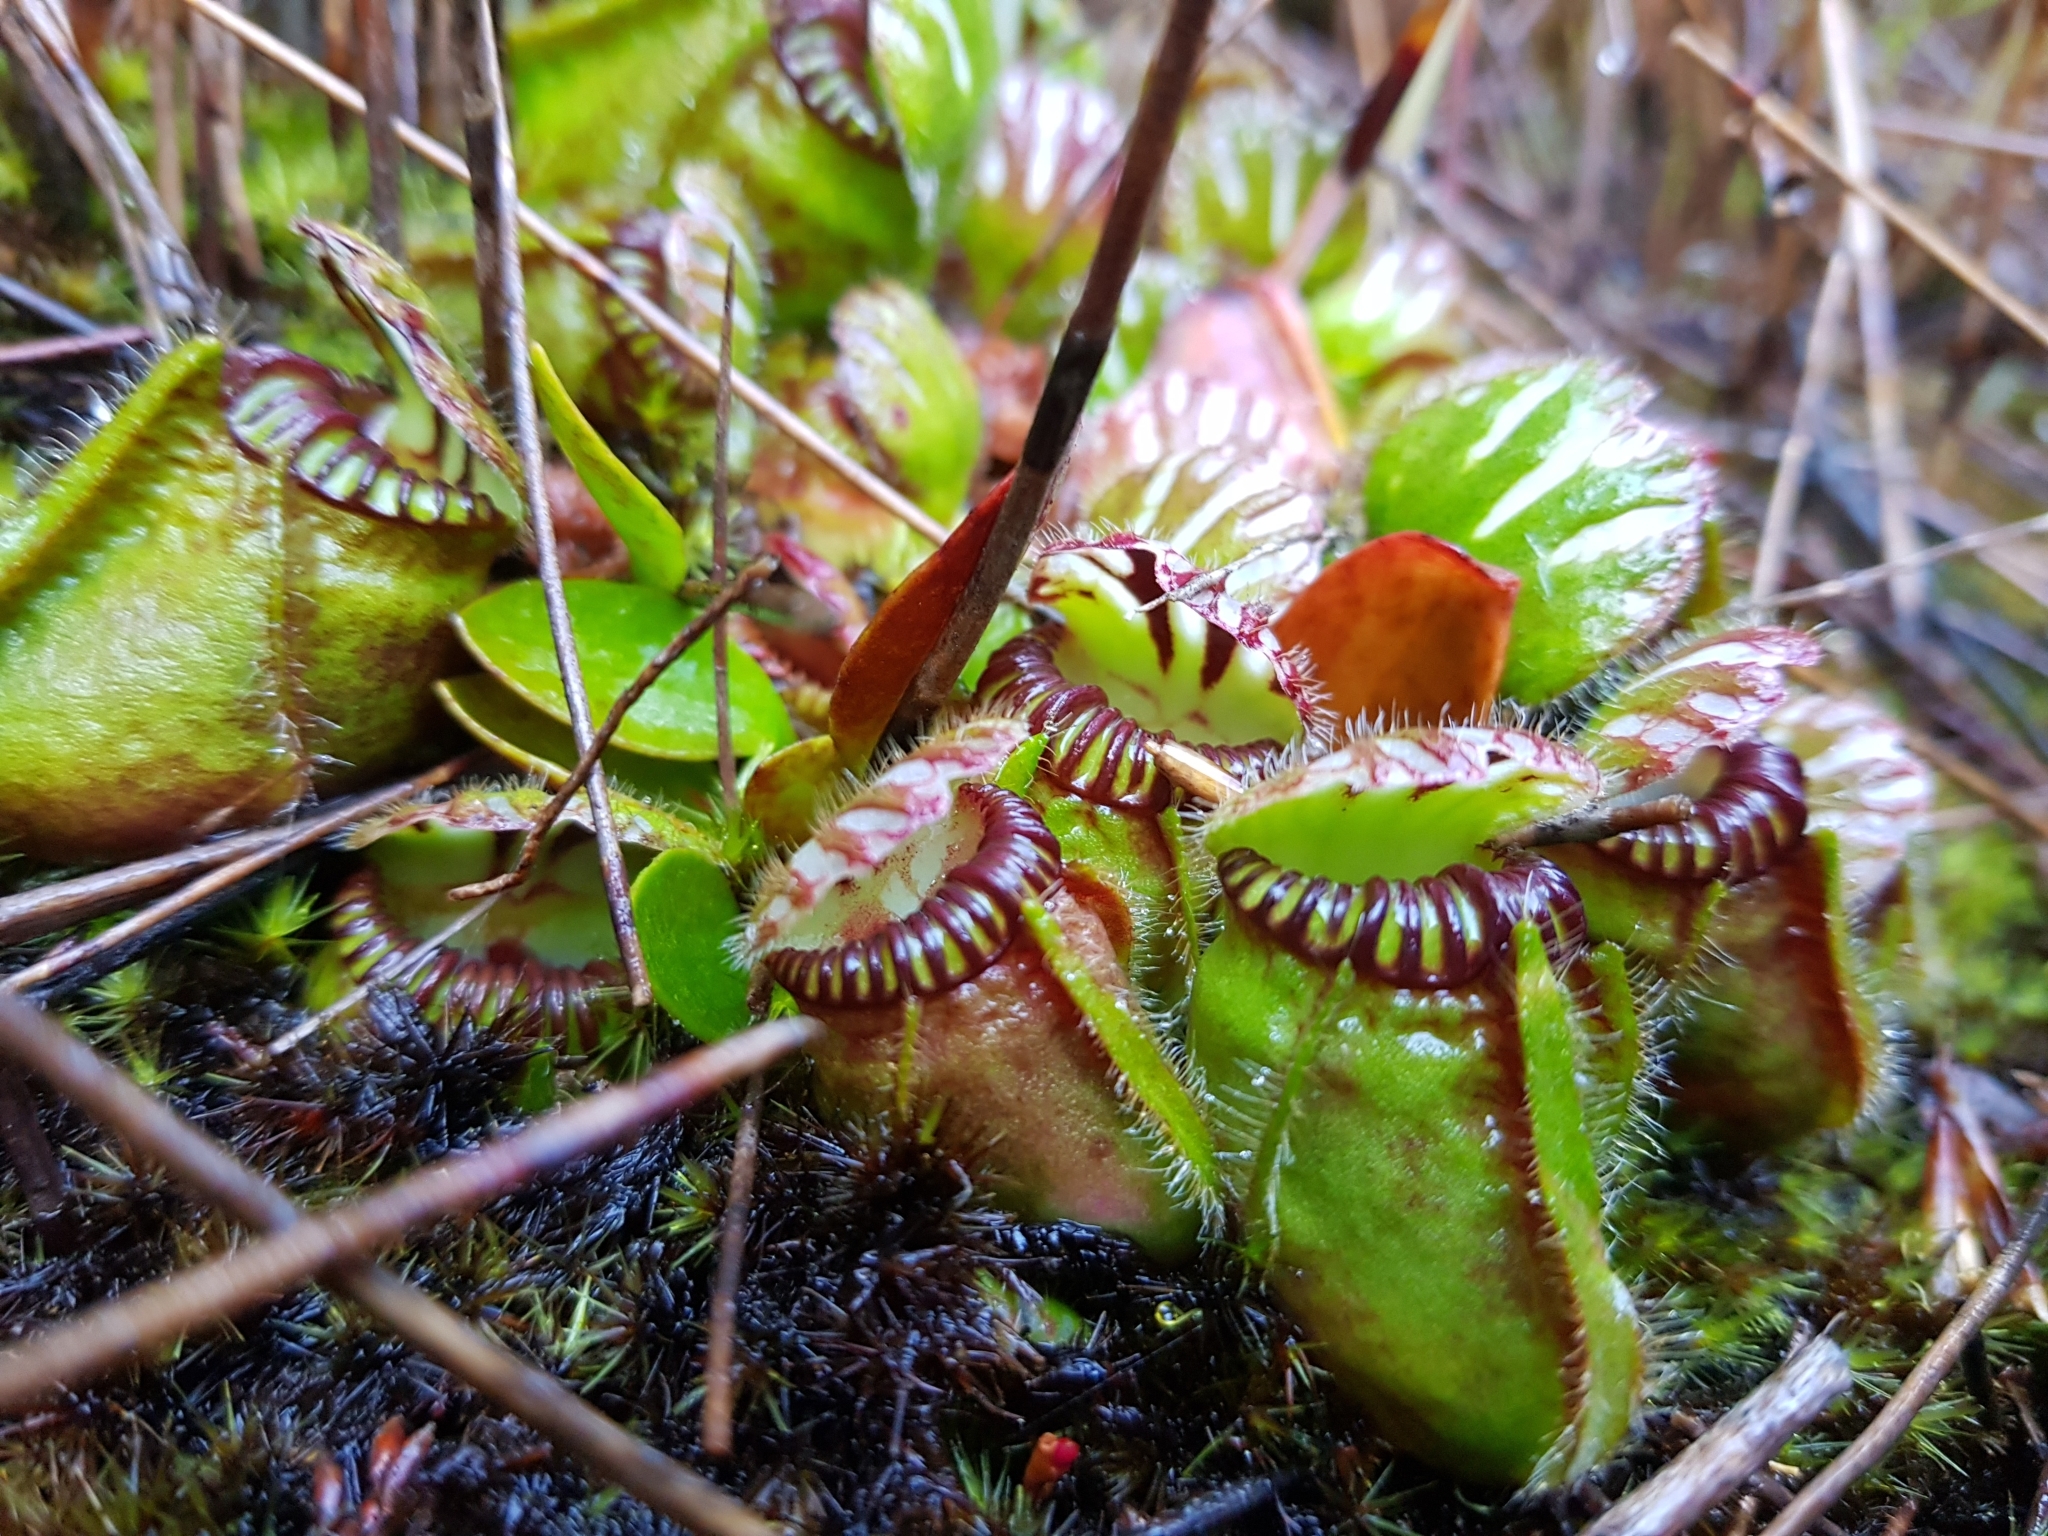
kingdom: Plantae
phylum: Tracheophyta
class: Magnoliopsida
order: Oxalidales
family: Cephalotaceae
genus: Cephalotus
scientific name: Cephalotus follicularis
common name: Australian pitcher plant
